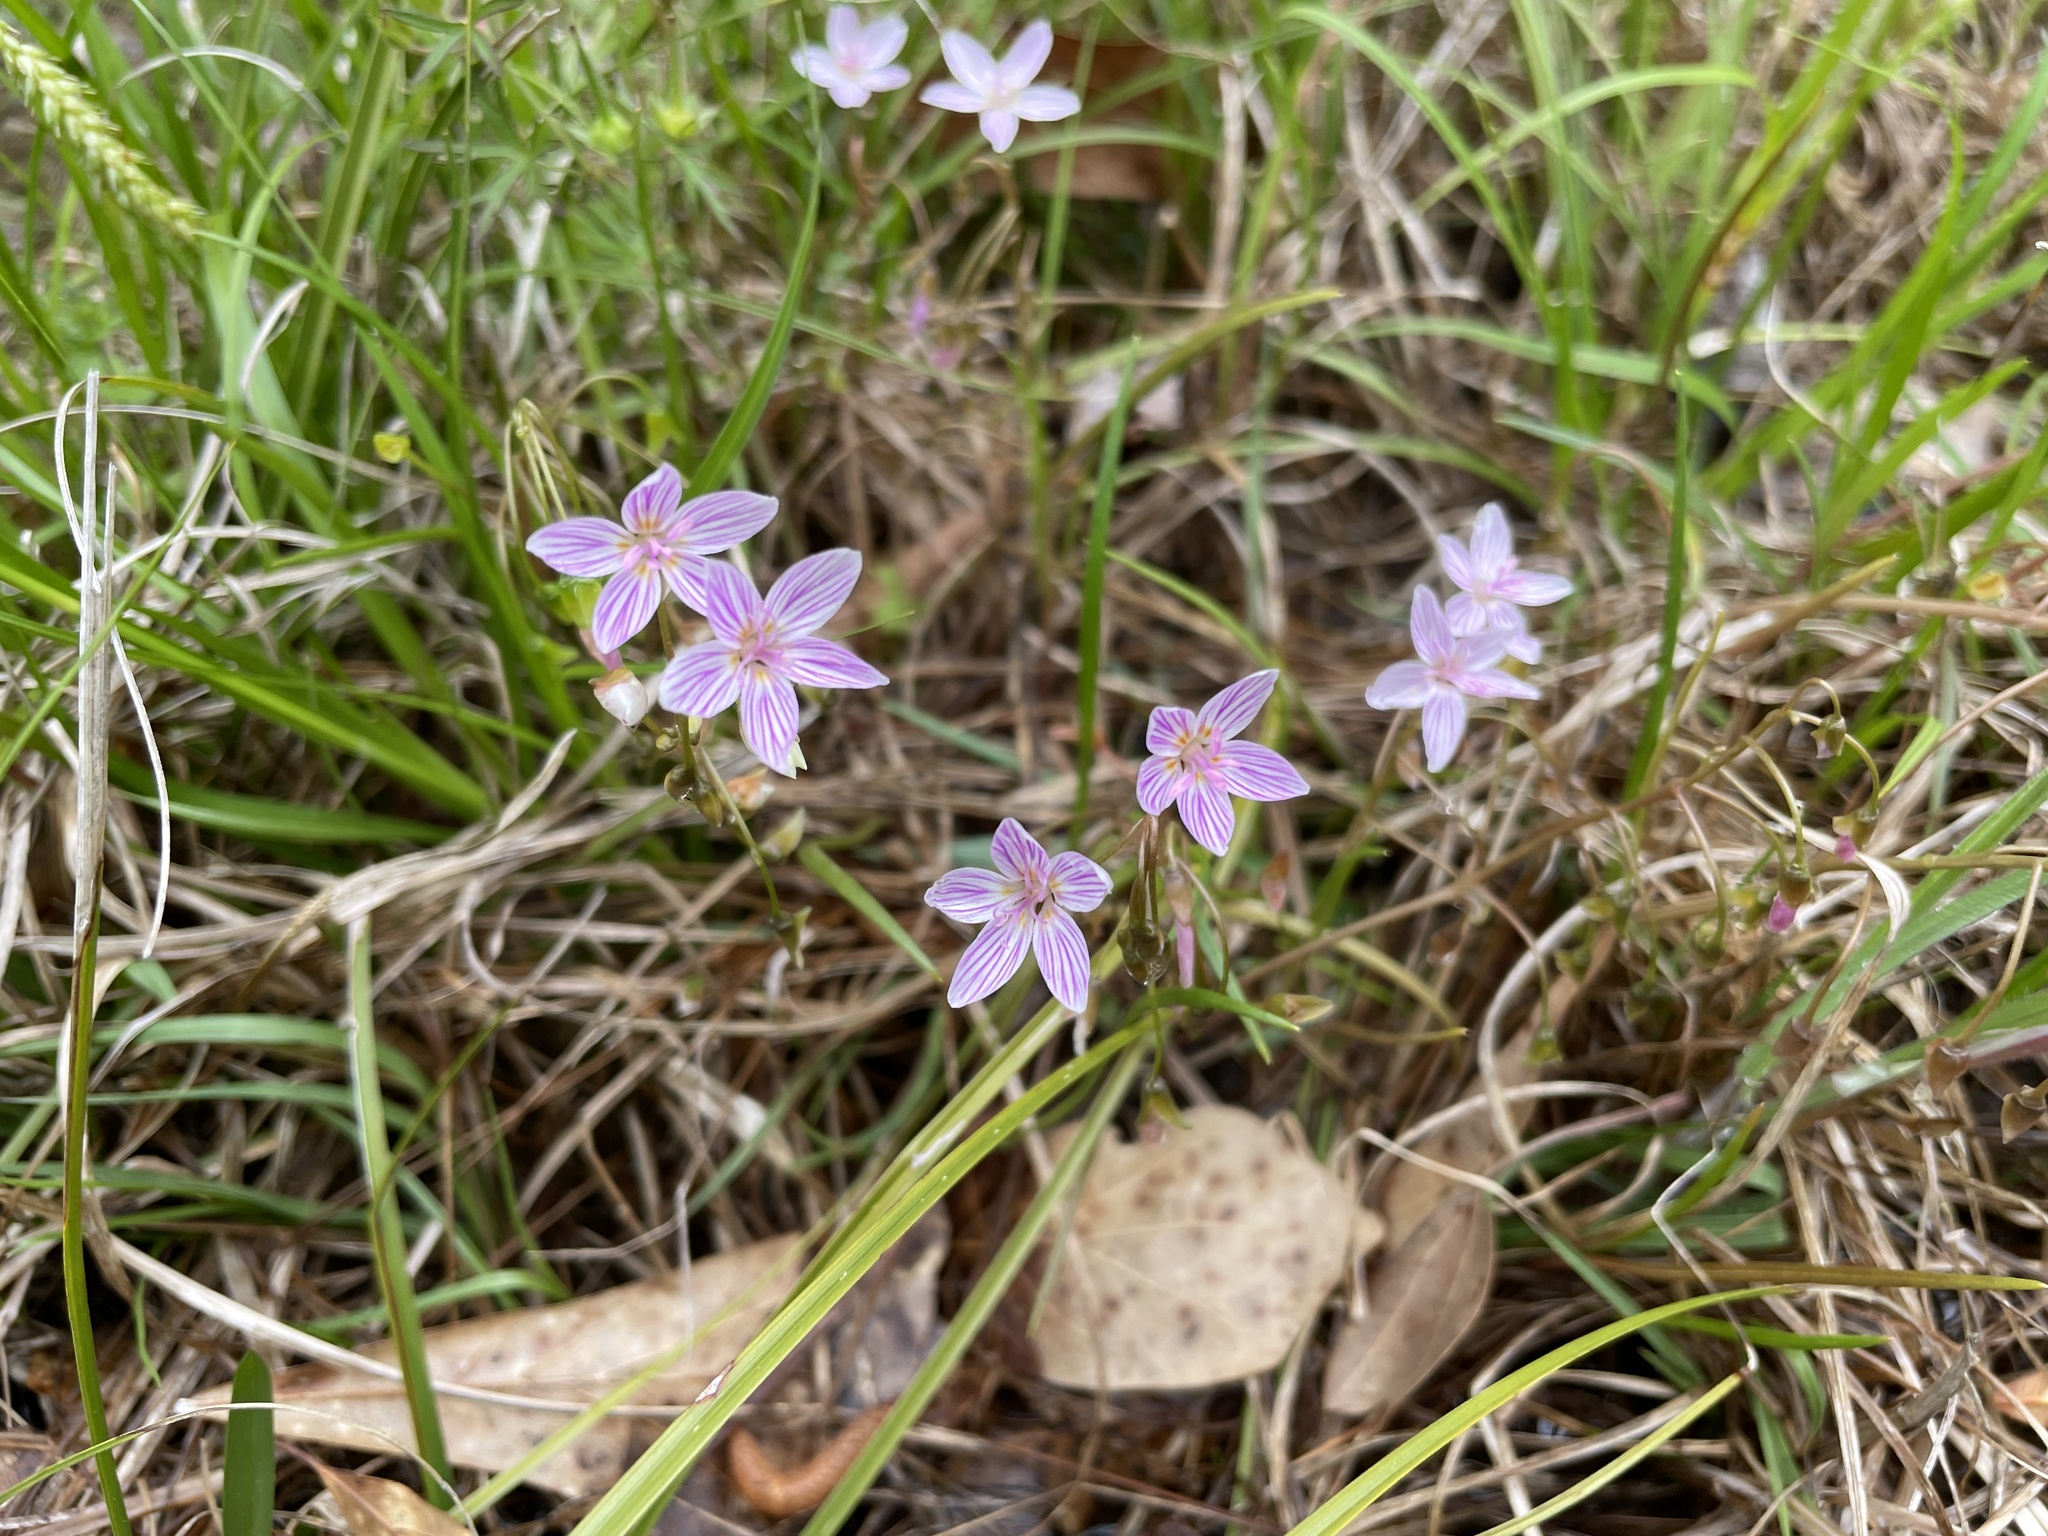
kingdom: Plantae
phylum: Tracheophyta
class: Magnoliopsida
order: Caryophyllales
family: Montiaceae
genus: Claytonia
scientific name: Claytonia virginica
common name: Virginia springbeauty
